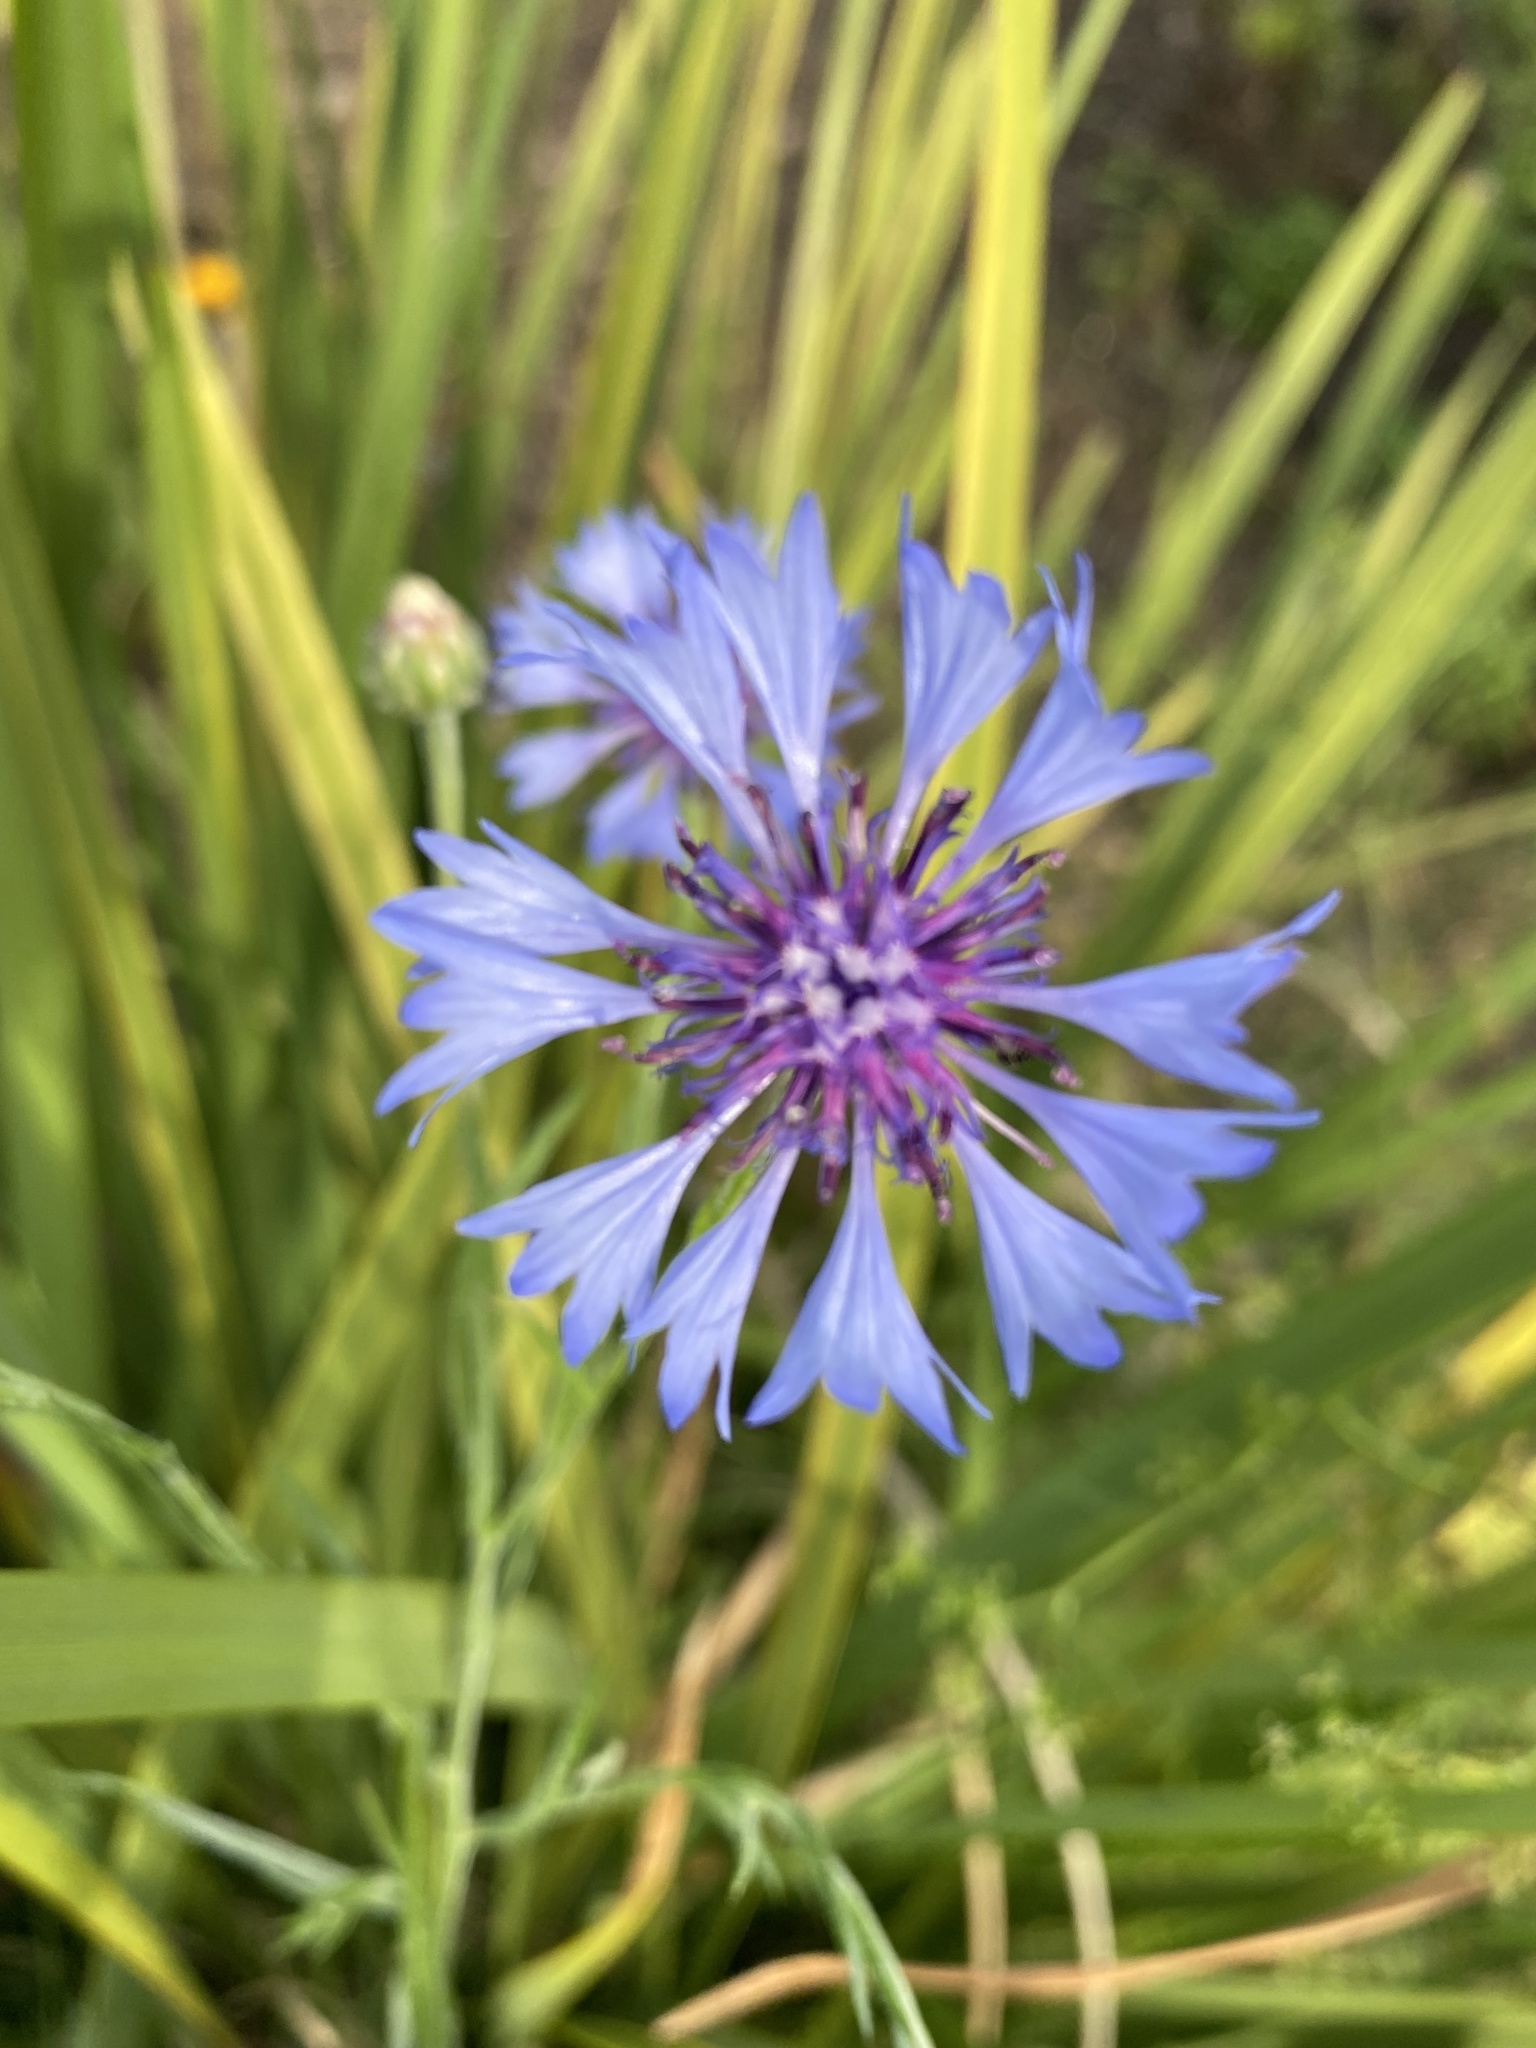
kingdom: Plantae
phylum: Tracheophyta
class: Magnoliopsida
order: Asterales
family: Asteraceae
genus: Centaurea
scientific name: Centaurea cyanus
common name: Cornflower
